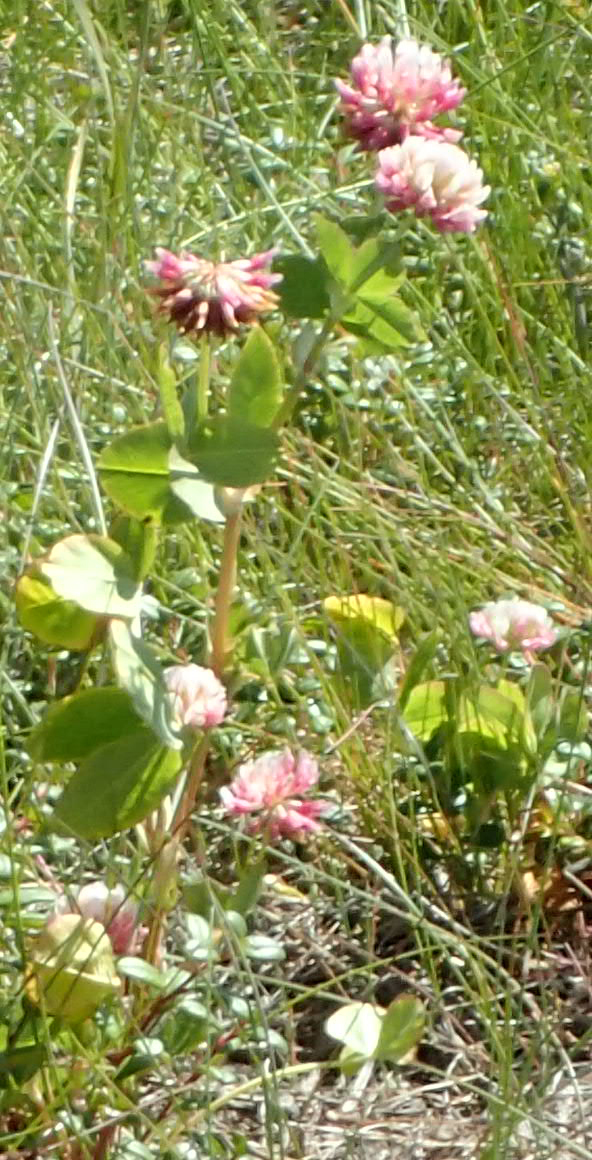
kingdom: Plantae
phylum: Tracheophyta
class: Magnoliopsida
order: Fabales
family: Fabaceae
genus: Trifolium
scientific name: Trifolium hybridum
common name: Alsike clover
